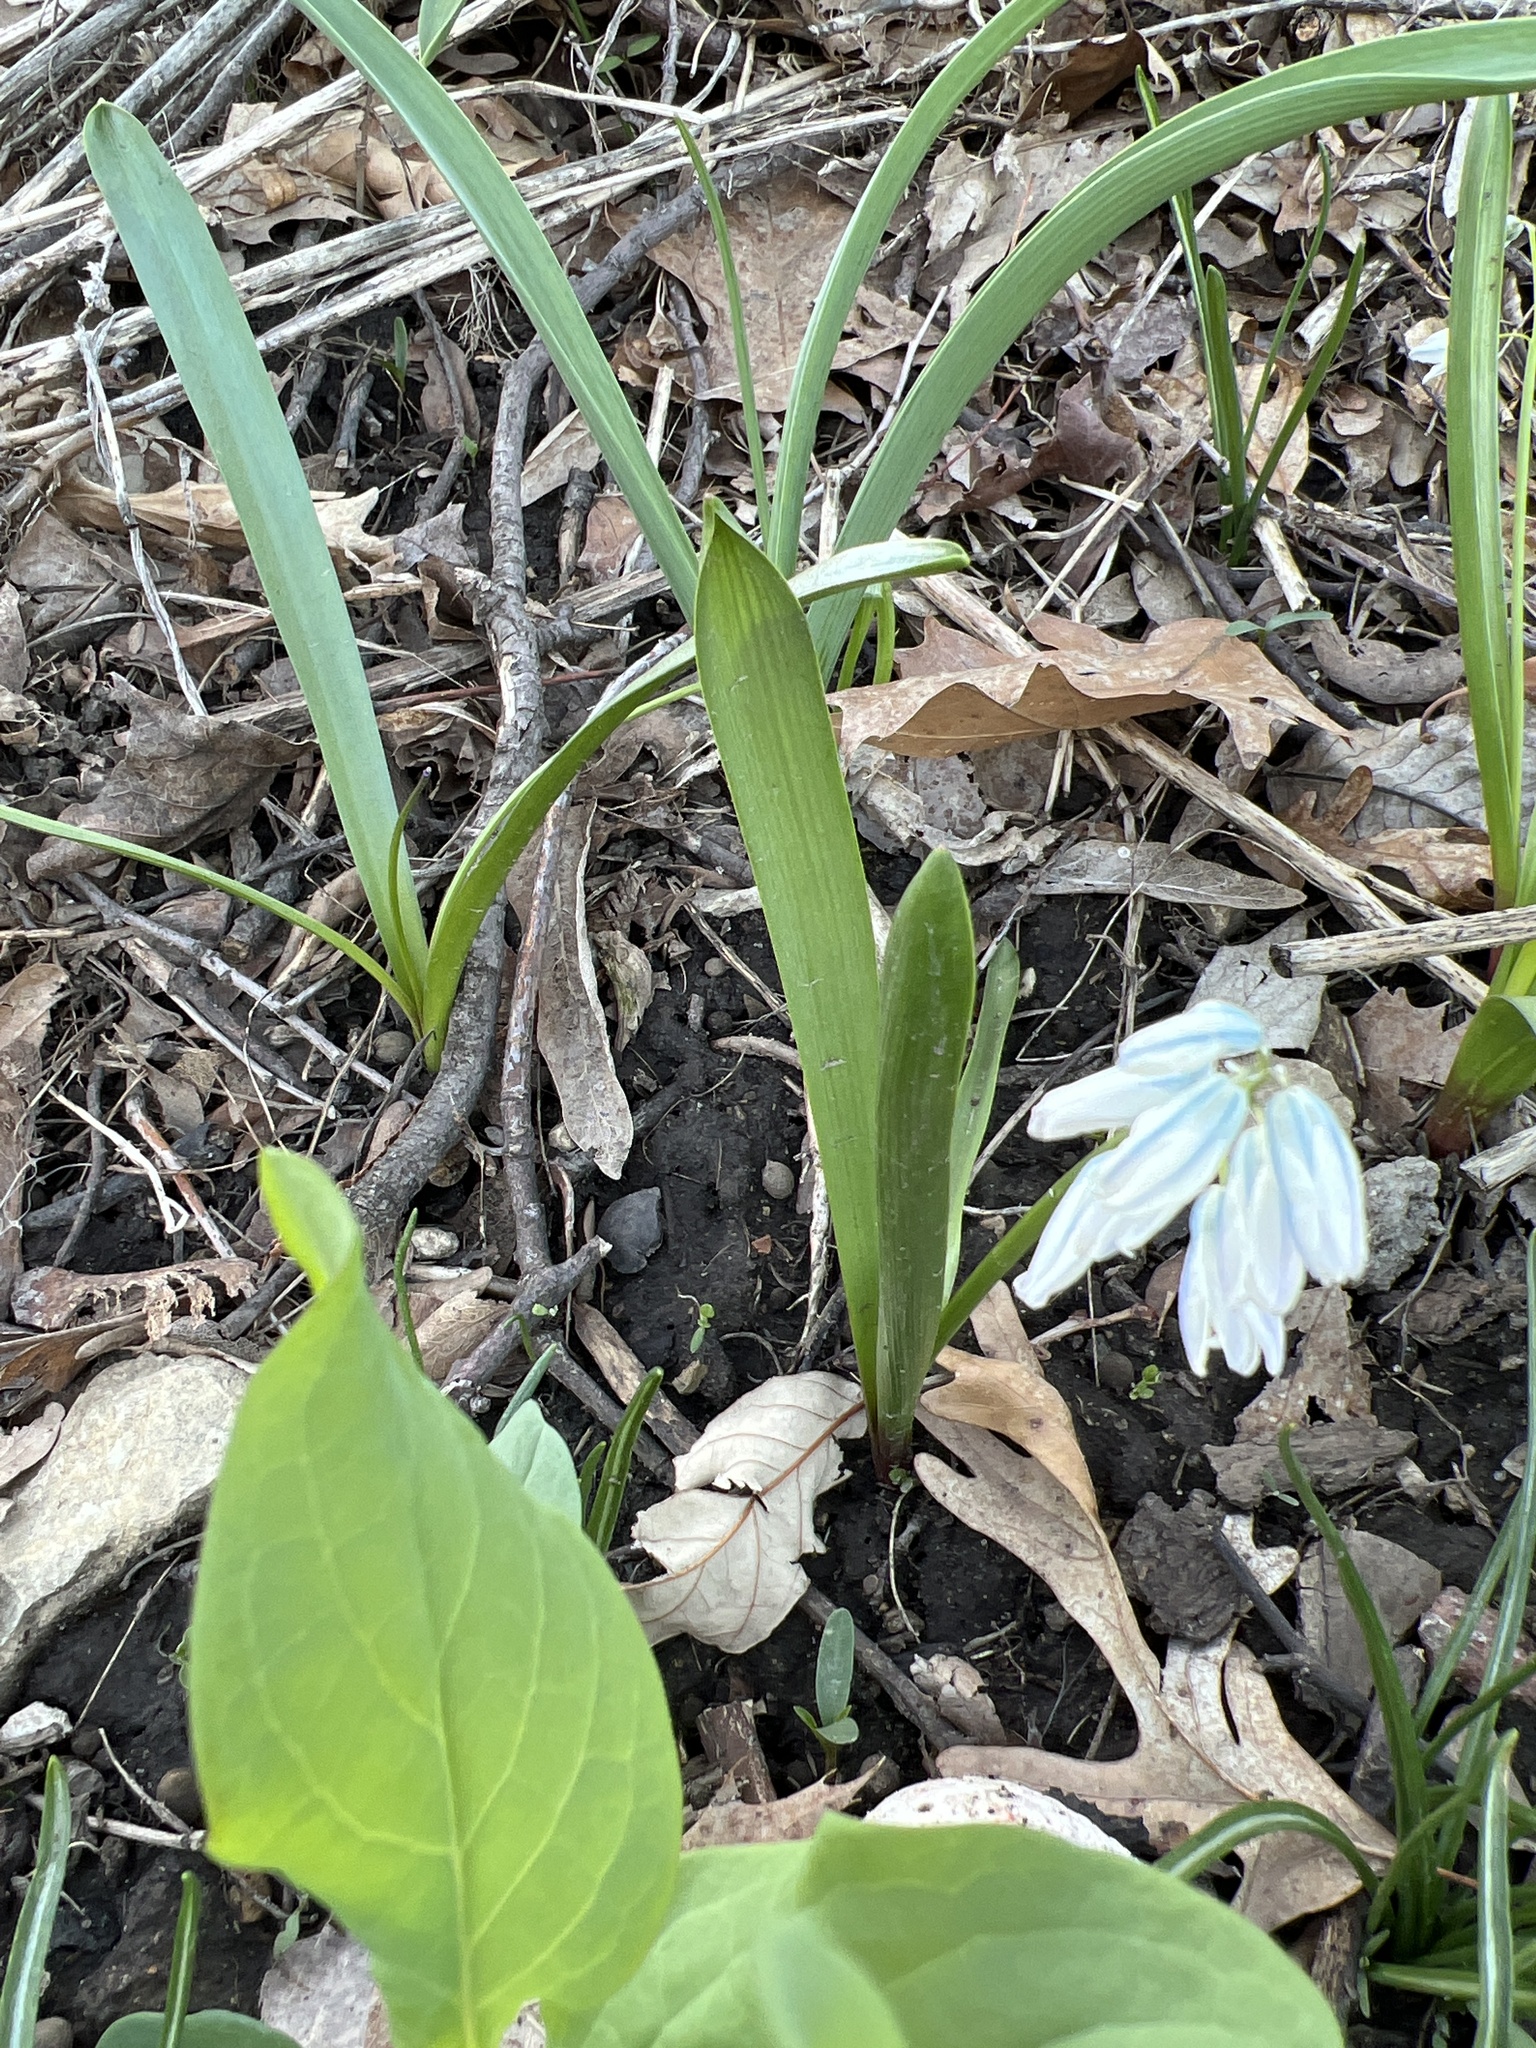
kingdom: Plantae
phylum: Tracheophyta
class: Liliopsida
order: Asparagales
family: Asparagaceae
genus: Puschkinia
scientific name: Puschkinia scilloides
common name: Striped squill
